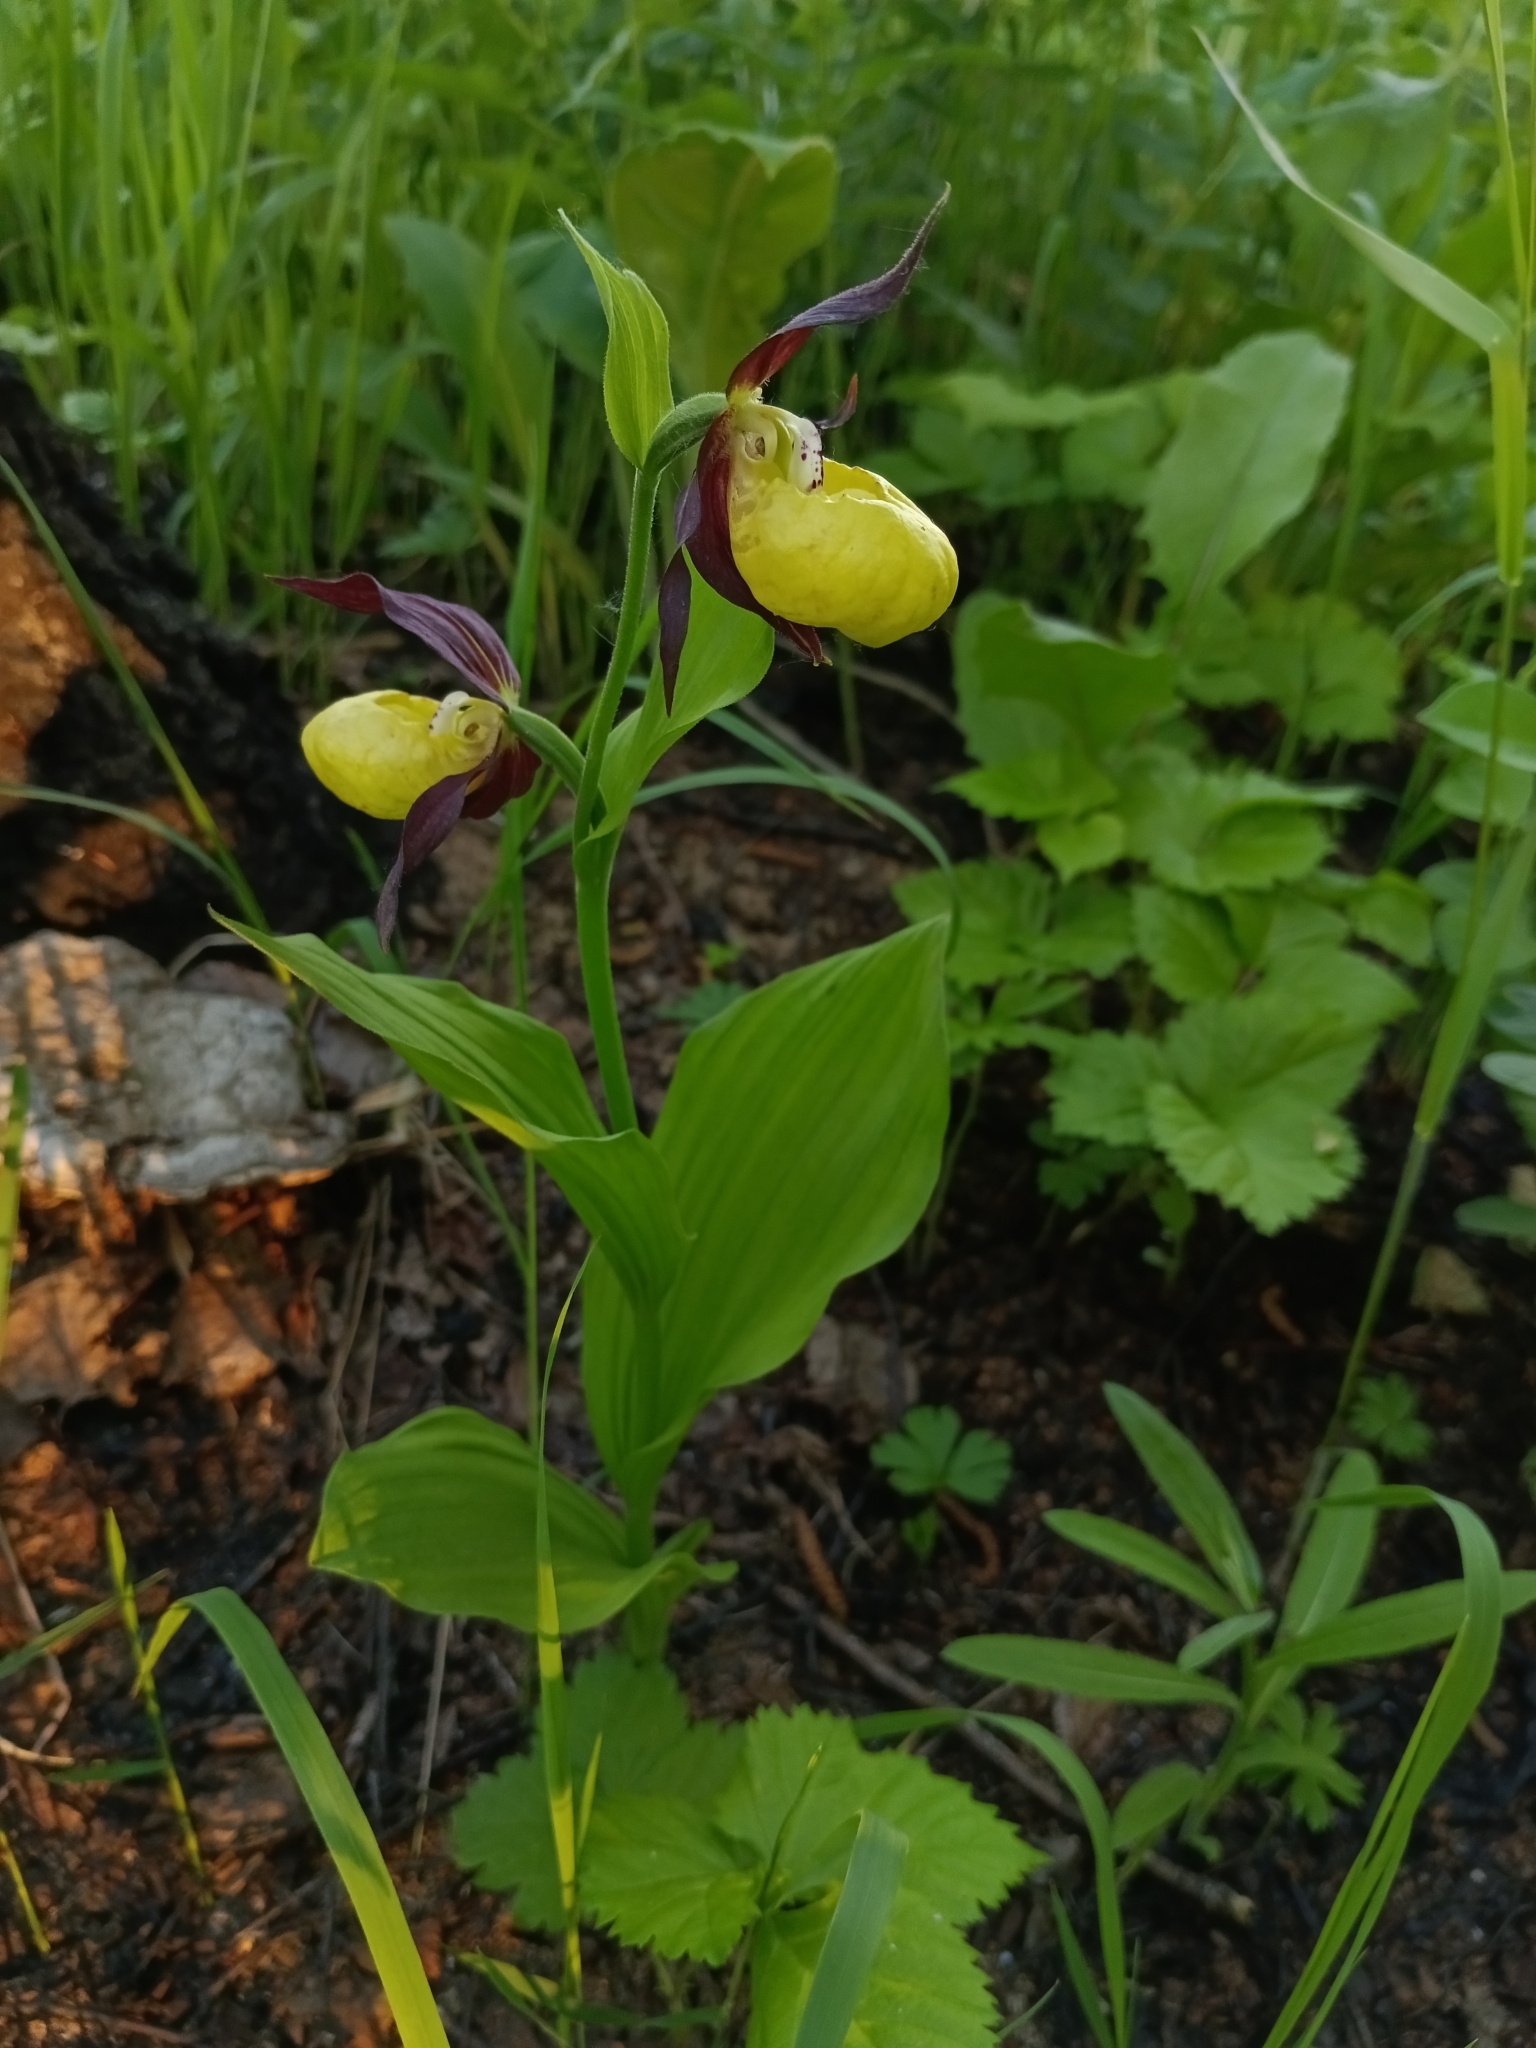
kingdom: Plantae
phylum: Tracheophyta
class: Liliopsida
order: Asparagales
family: Orchidaceae
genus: Cypripedium
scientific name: Cypripedium calceolus
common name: Lady's-slipper
